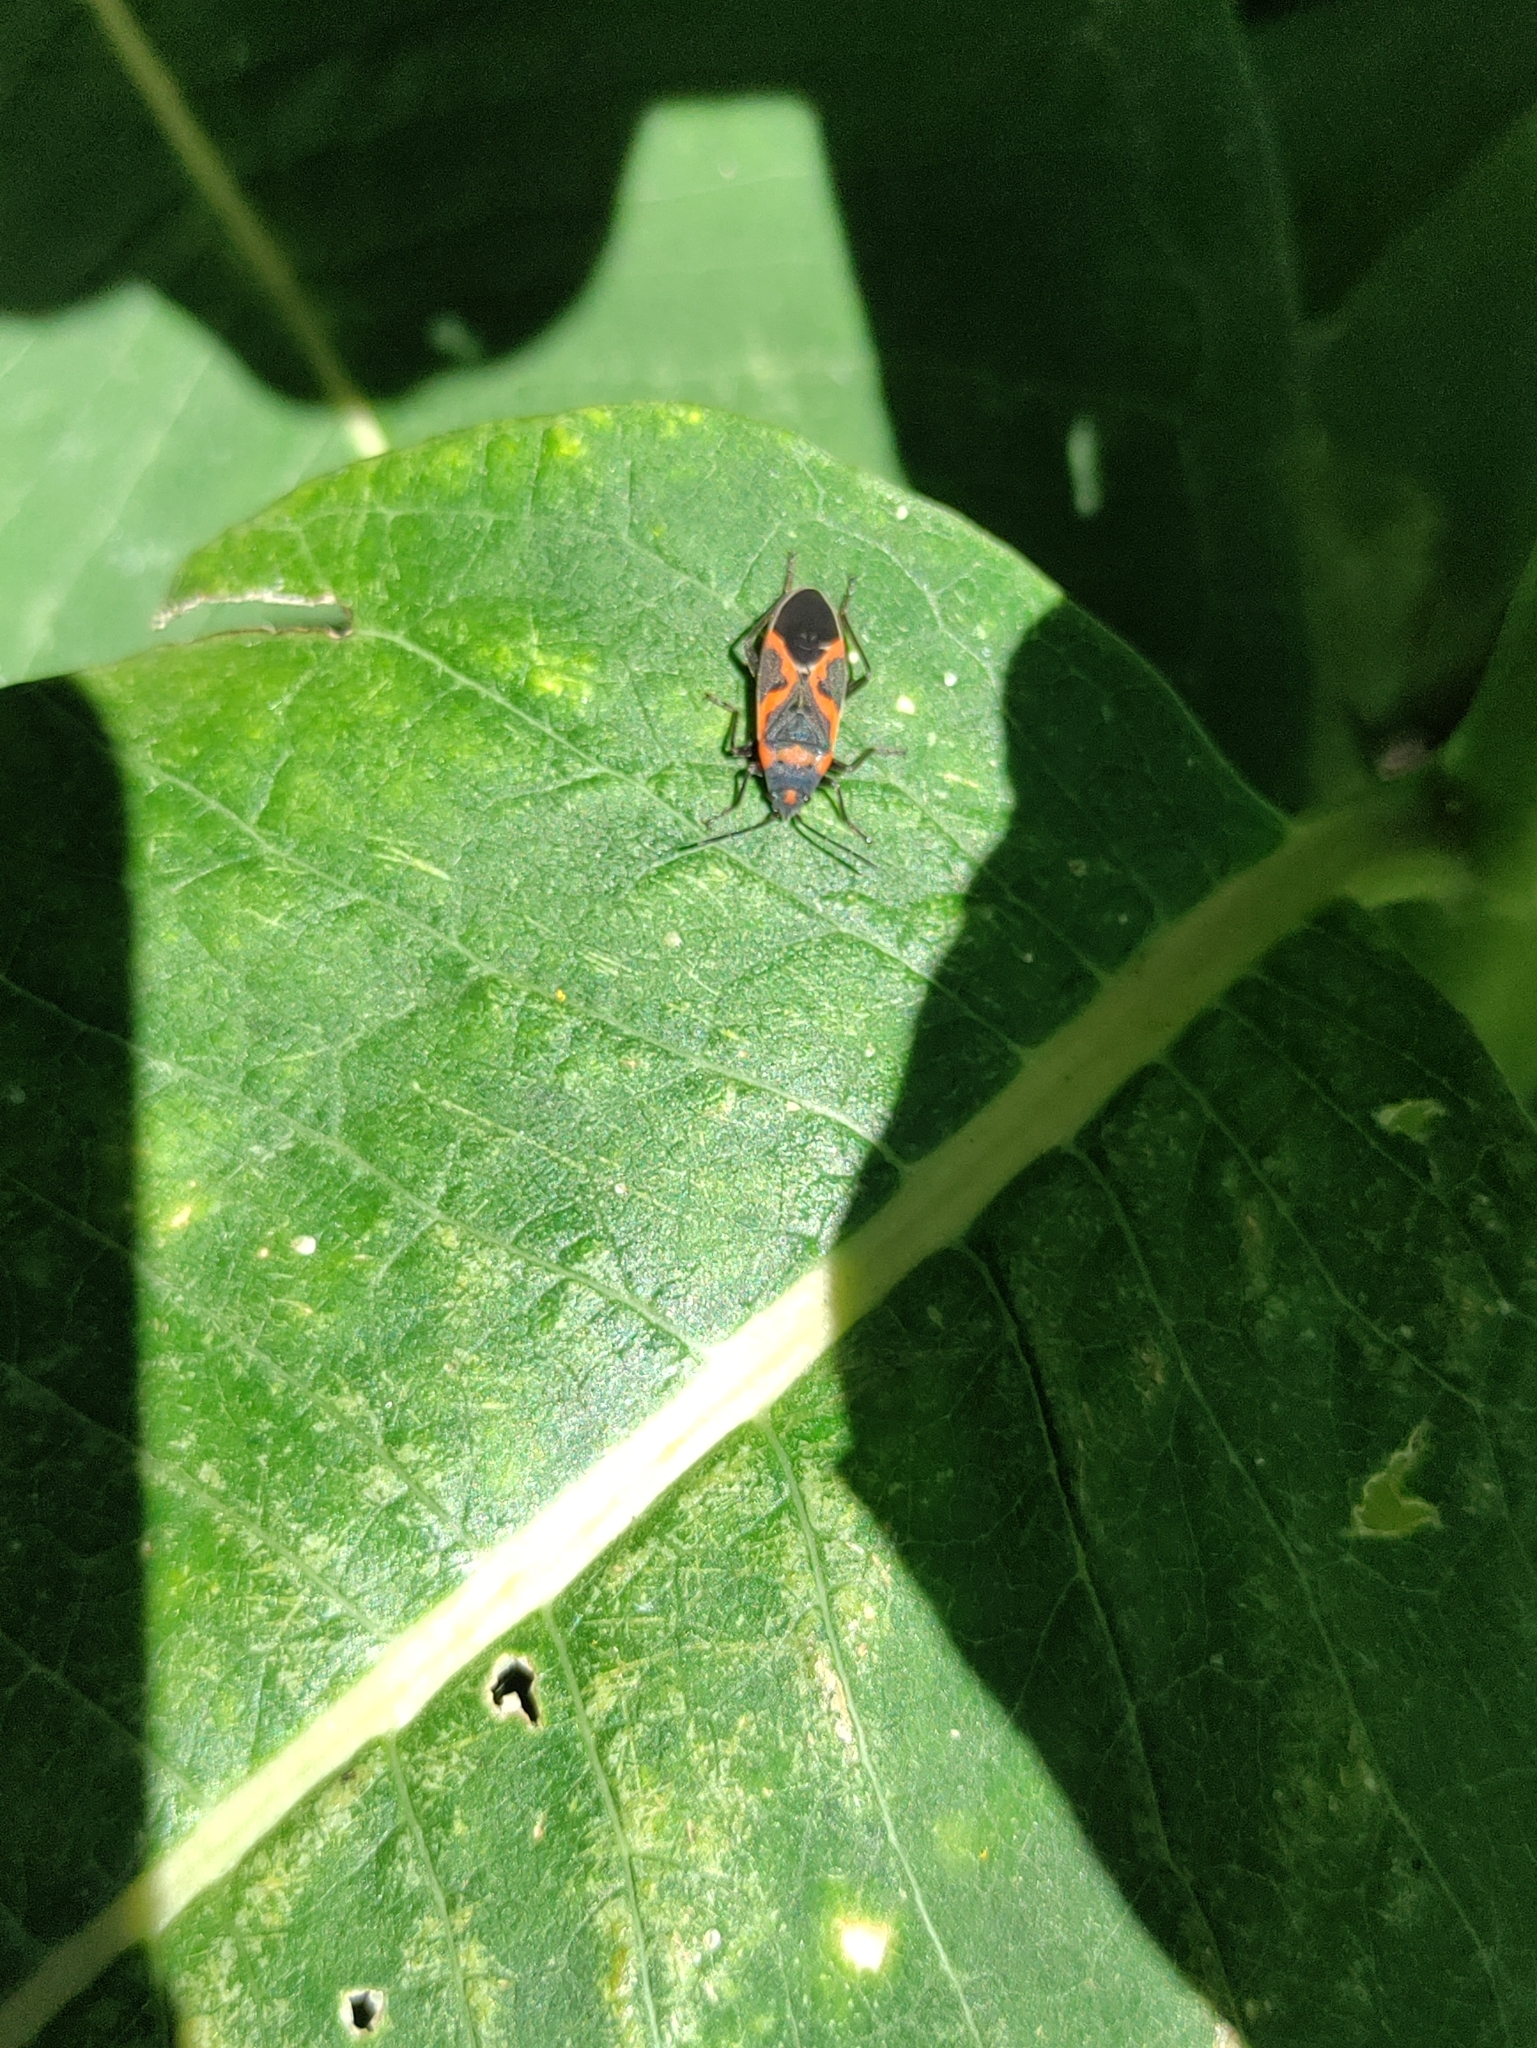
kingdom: Animalia
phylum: Arthropoda
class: Insecta
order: Hemiptera
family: Lygaeidae
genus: Lygaeus
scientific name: Lygaeus kalmii
